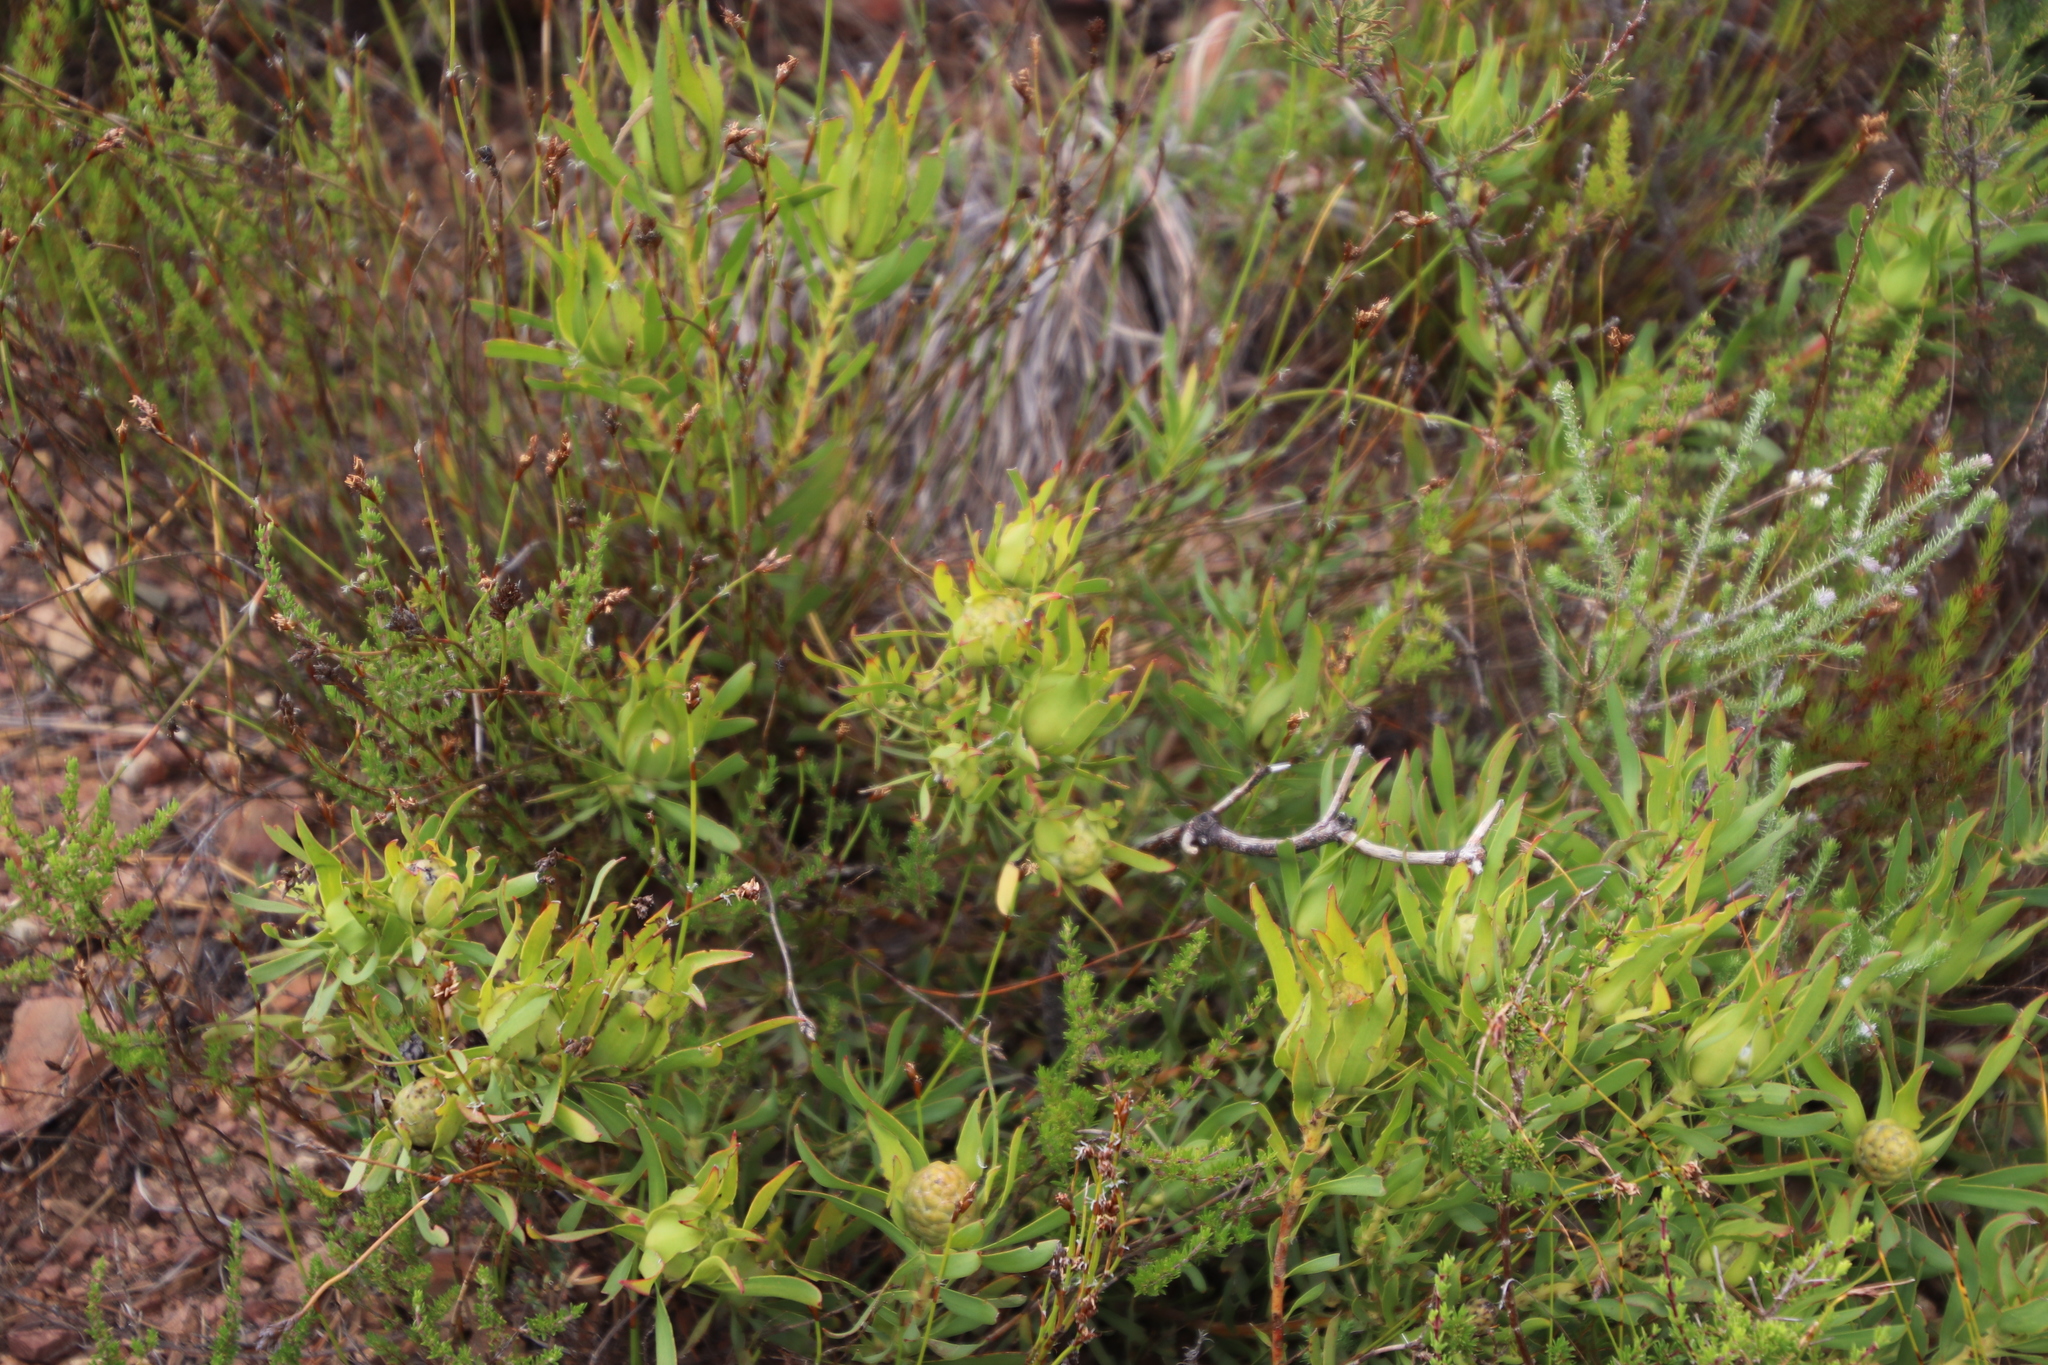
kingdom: Plantae
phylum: Tracheophyta
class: Magnoliopsida
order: Proteales
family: Proteaceae
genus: Leucadendron
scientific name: Leucadendron salignum
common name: Common sunshine conebush
